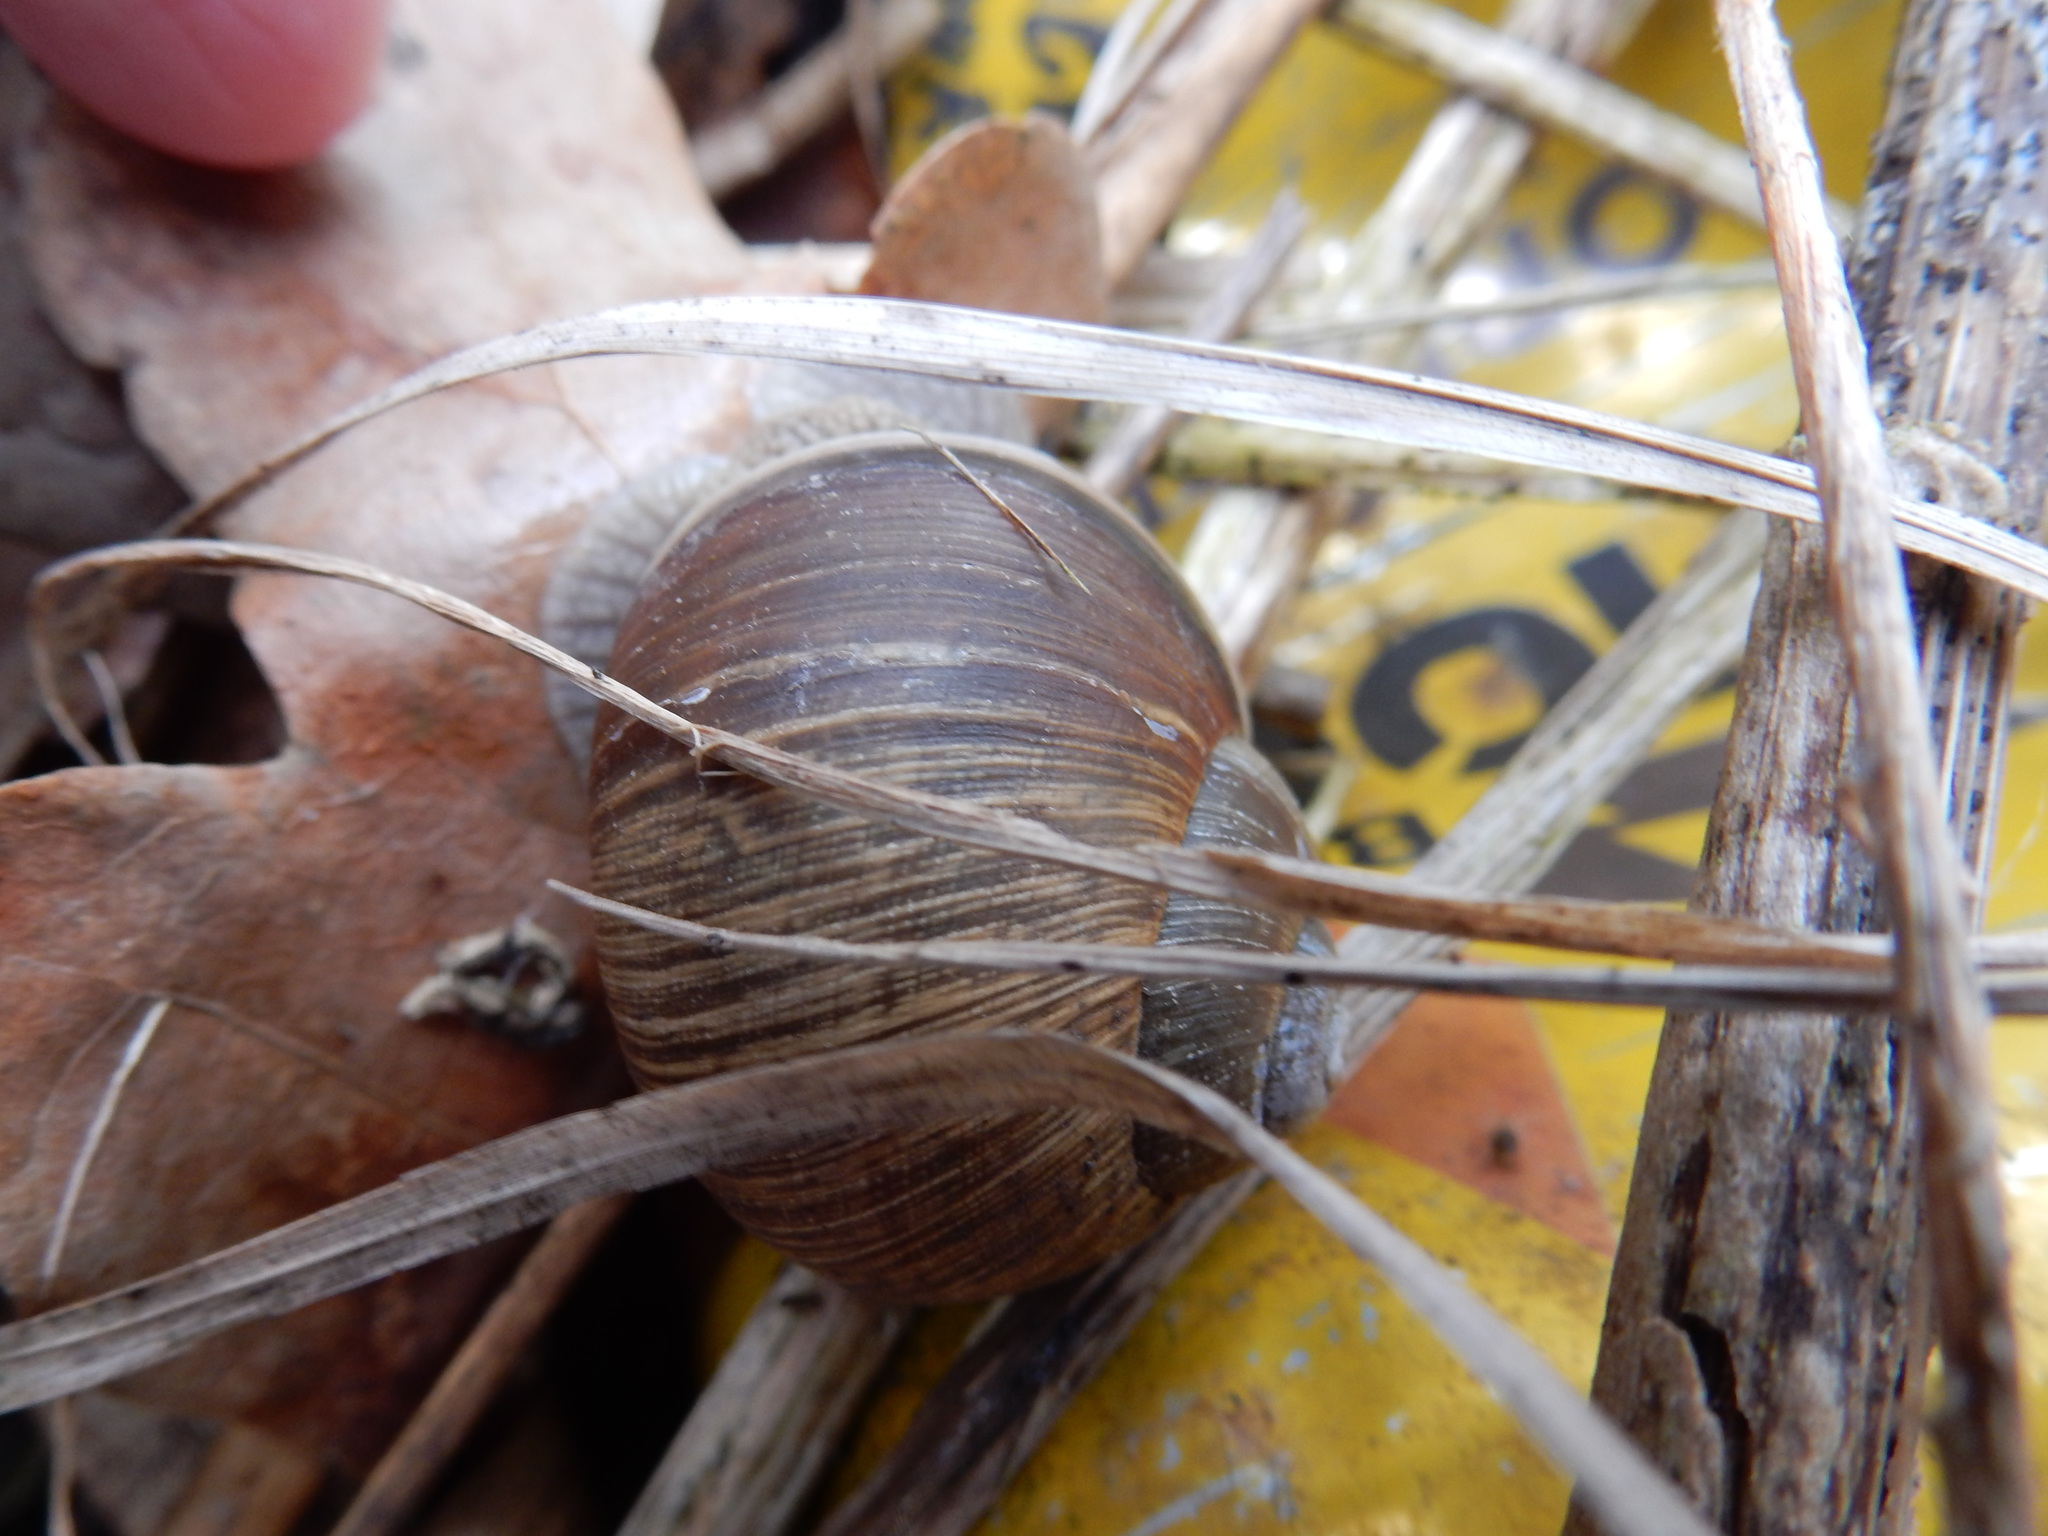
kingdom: Animalia
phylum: Mollusca
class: Gastropoda
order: Stylommatophora
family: Helicidae
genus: Helix
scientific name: Helix pomatia
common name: Roman snail
